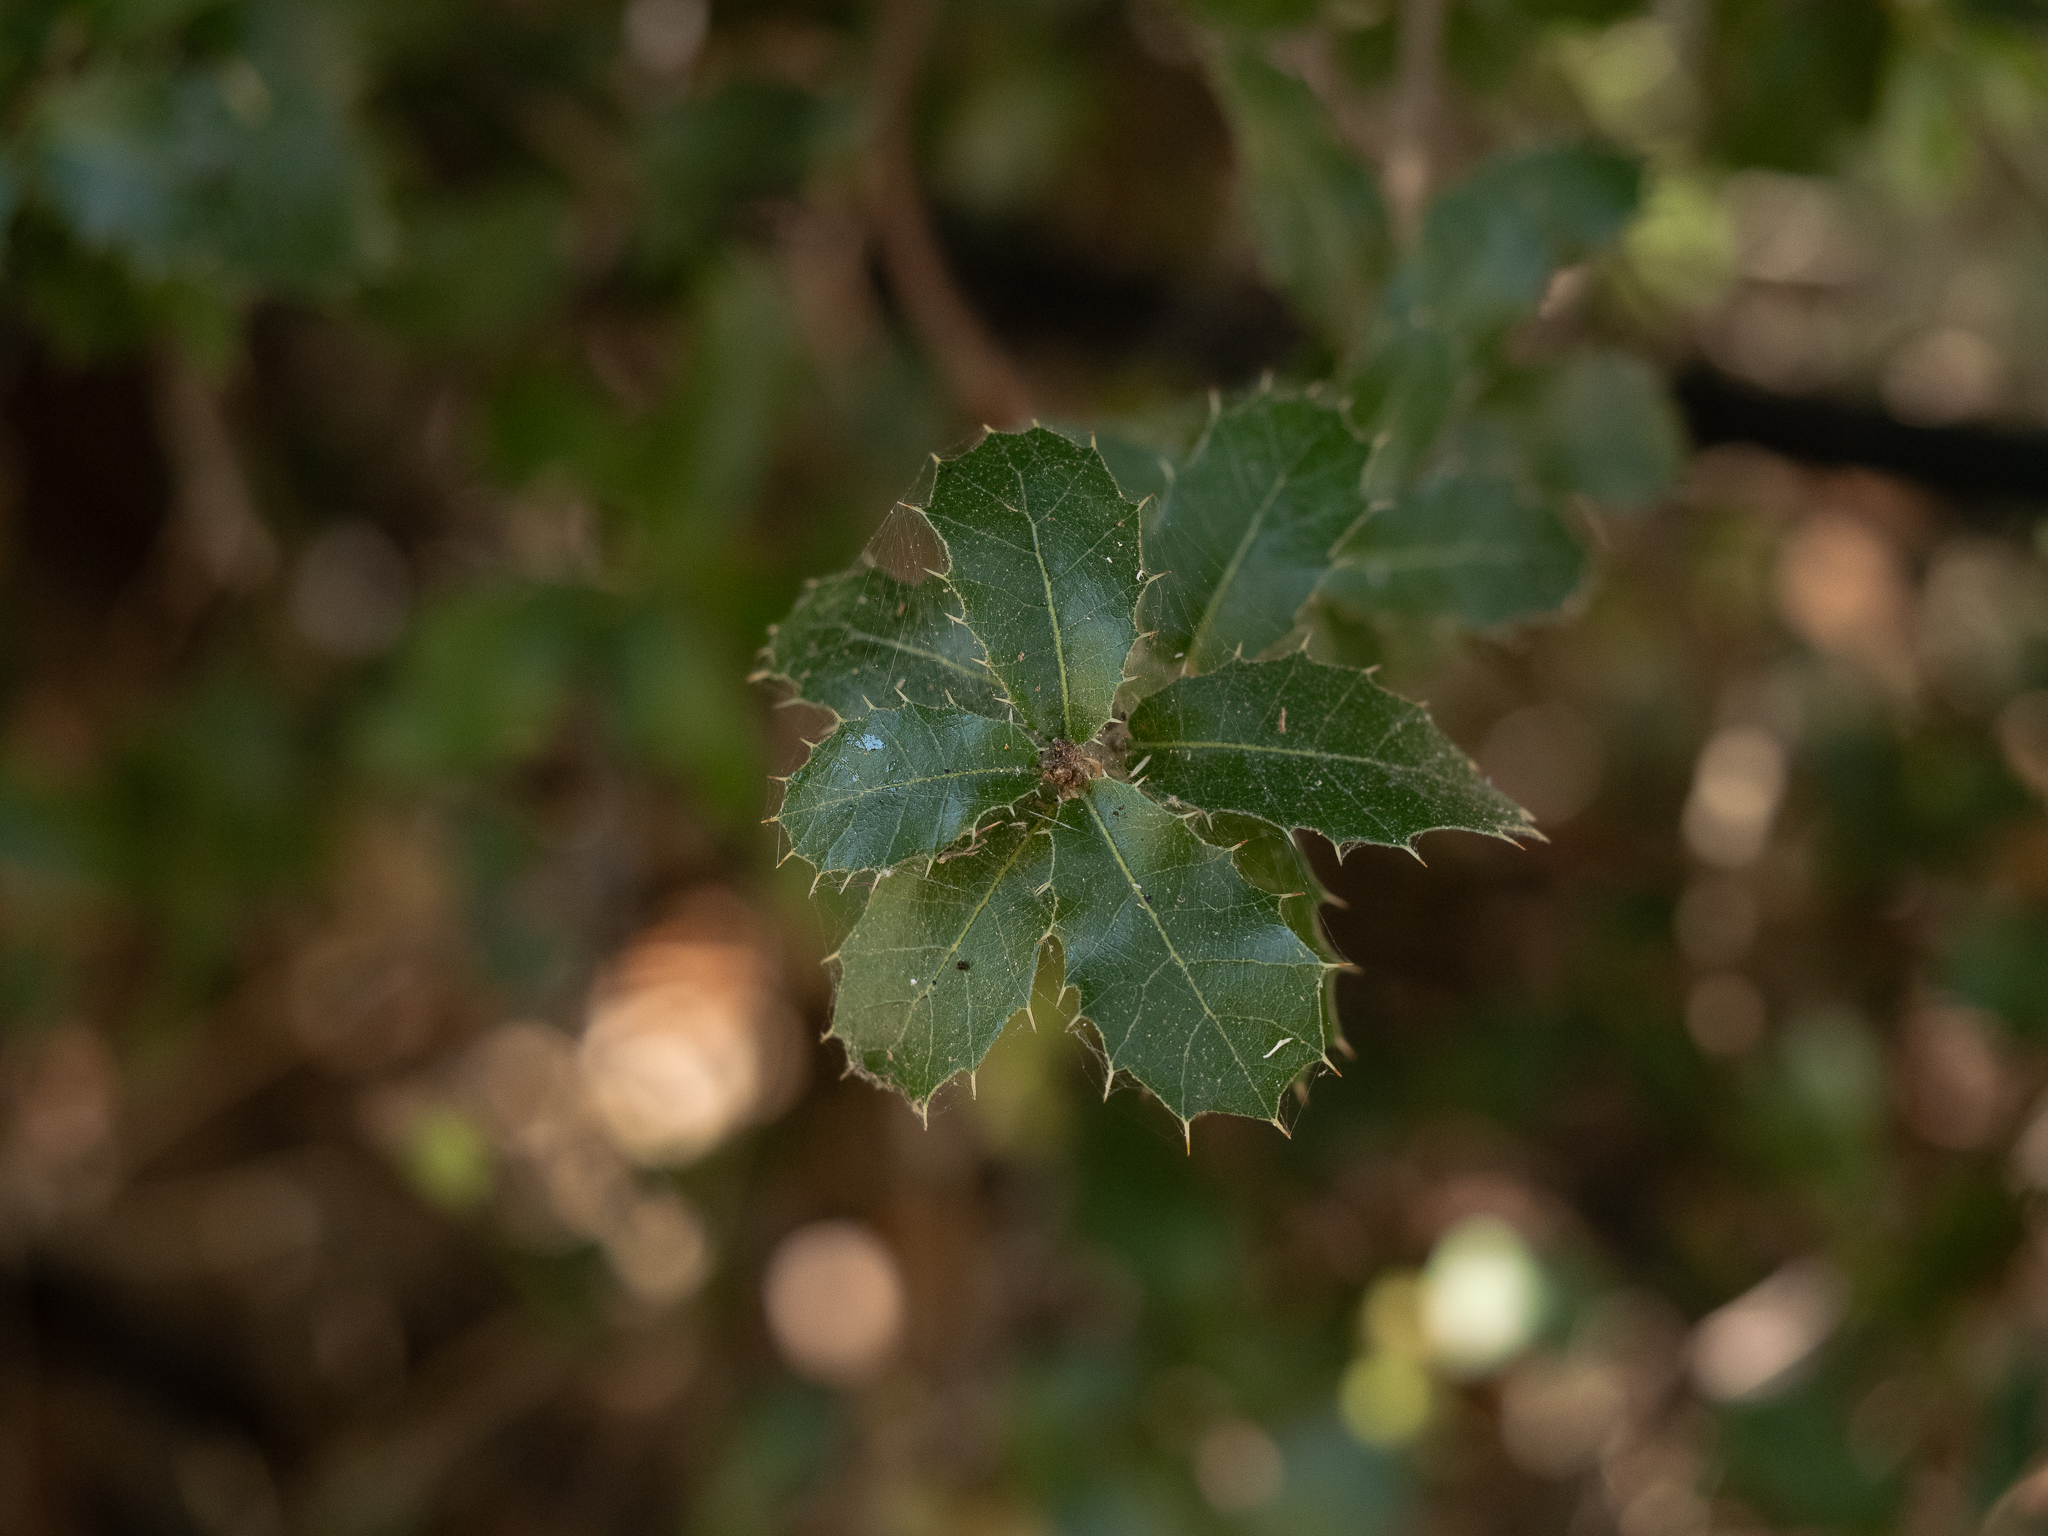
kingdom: Plantae
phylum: Tracheophyta
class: Magnoliopsida
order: Fagales
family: Fagaceae
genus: Quercus
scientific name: Quercus coccifera
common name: Kermes oak
